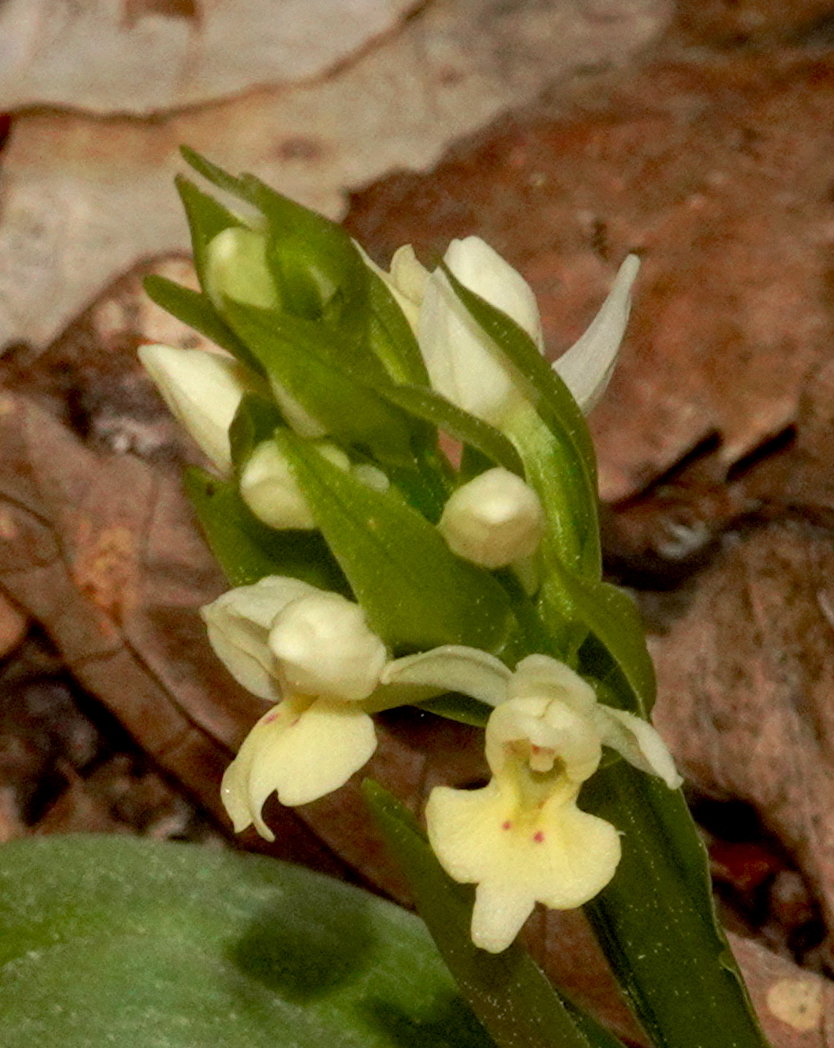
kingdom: Plantae
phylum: Tracheophyta
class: Liliopsida
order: Asparagales
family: Orchidaceae
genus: Dactylorhiza
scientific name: Dactylorhiza insularis
